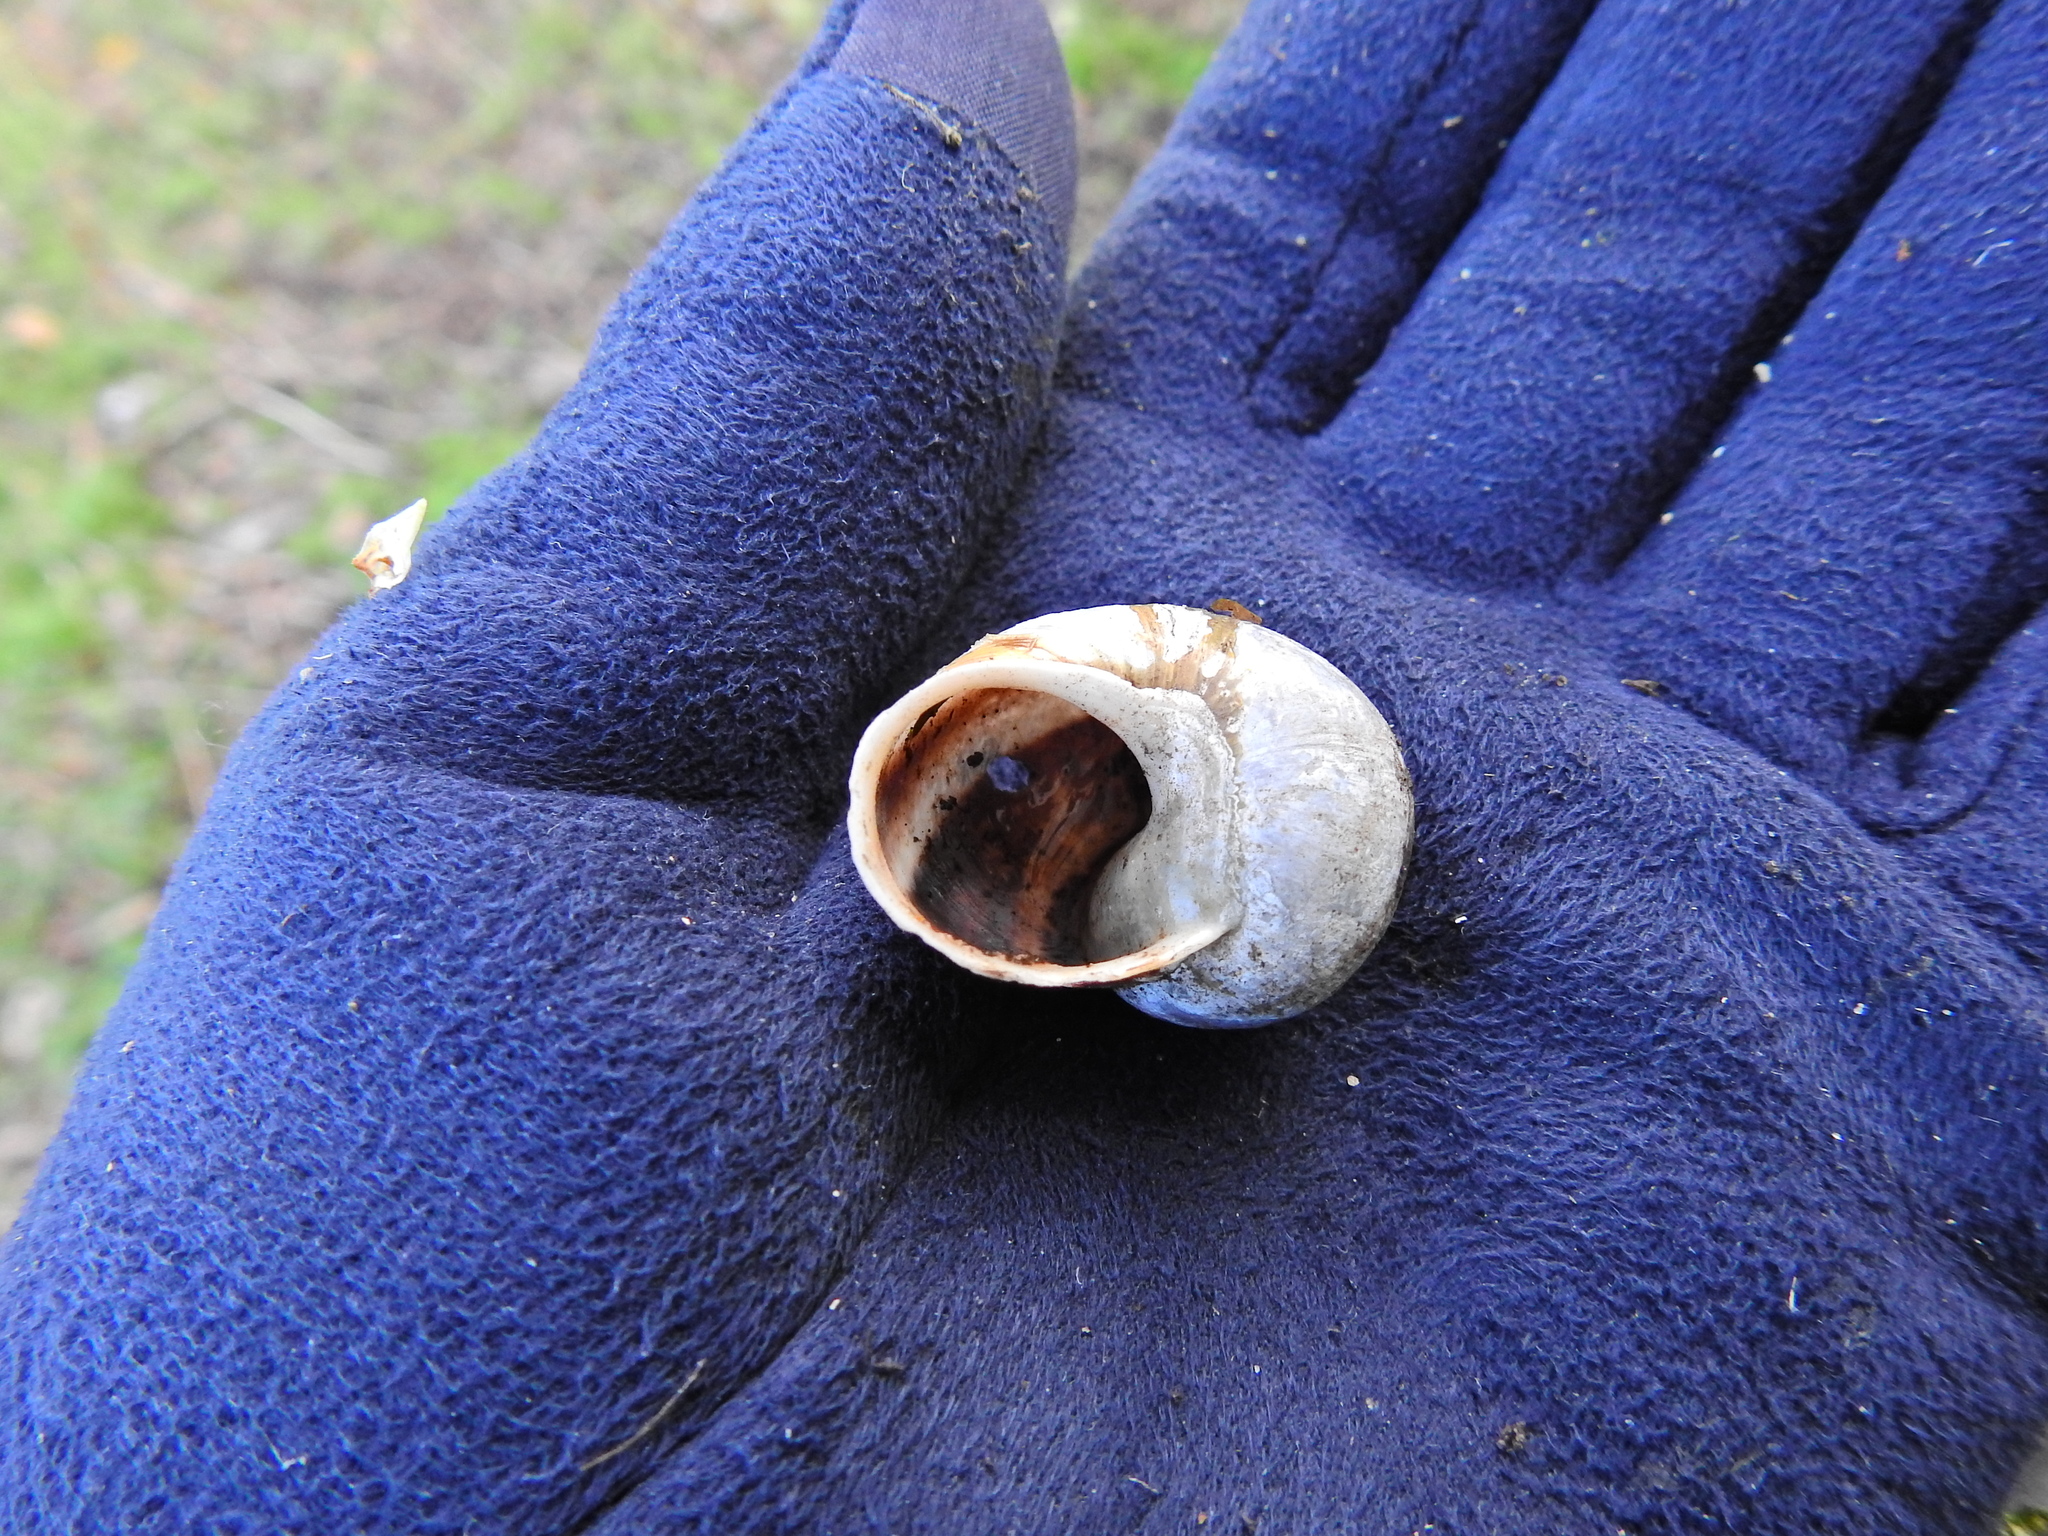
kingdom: Animalia
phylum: Mollusca
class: Gastropoda
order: Stylommatophora
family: Helicidae
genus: Cornu
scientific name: Cornu aspersum
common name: Brown garden snail
